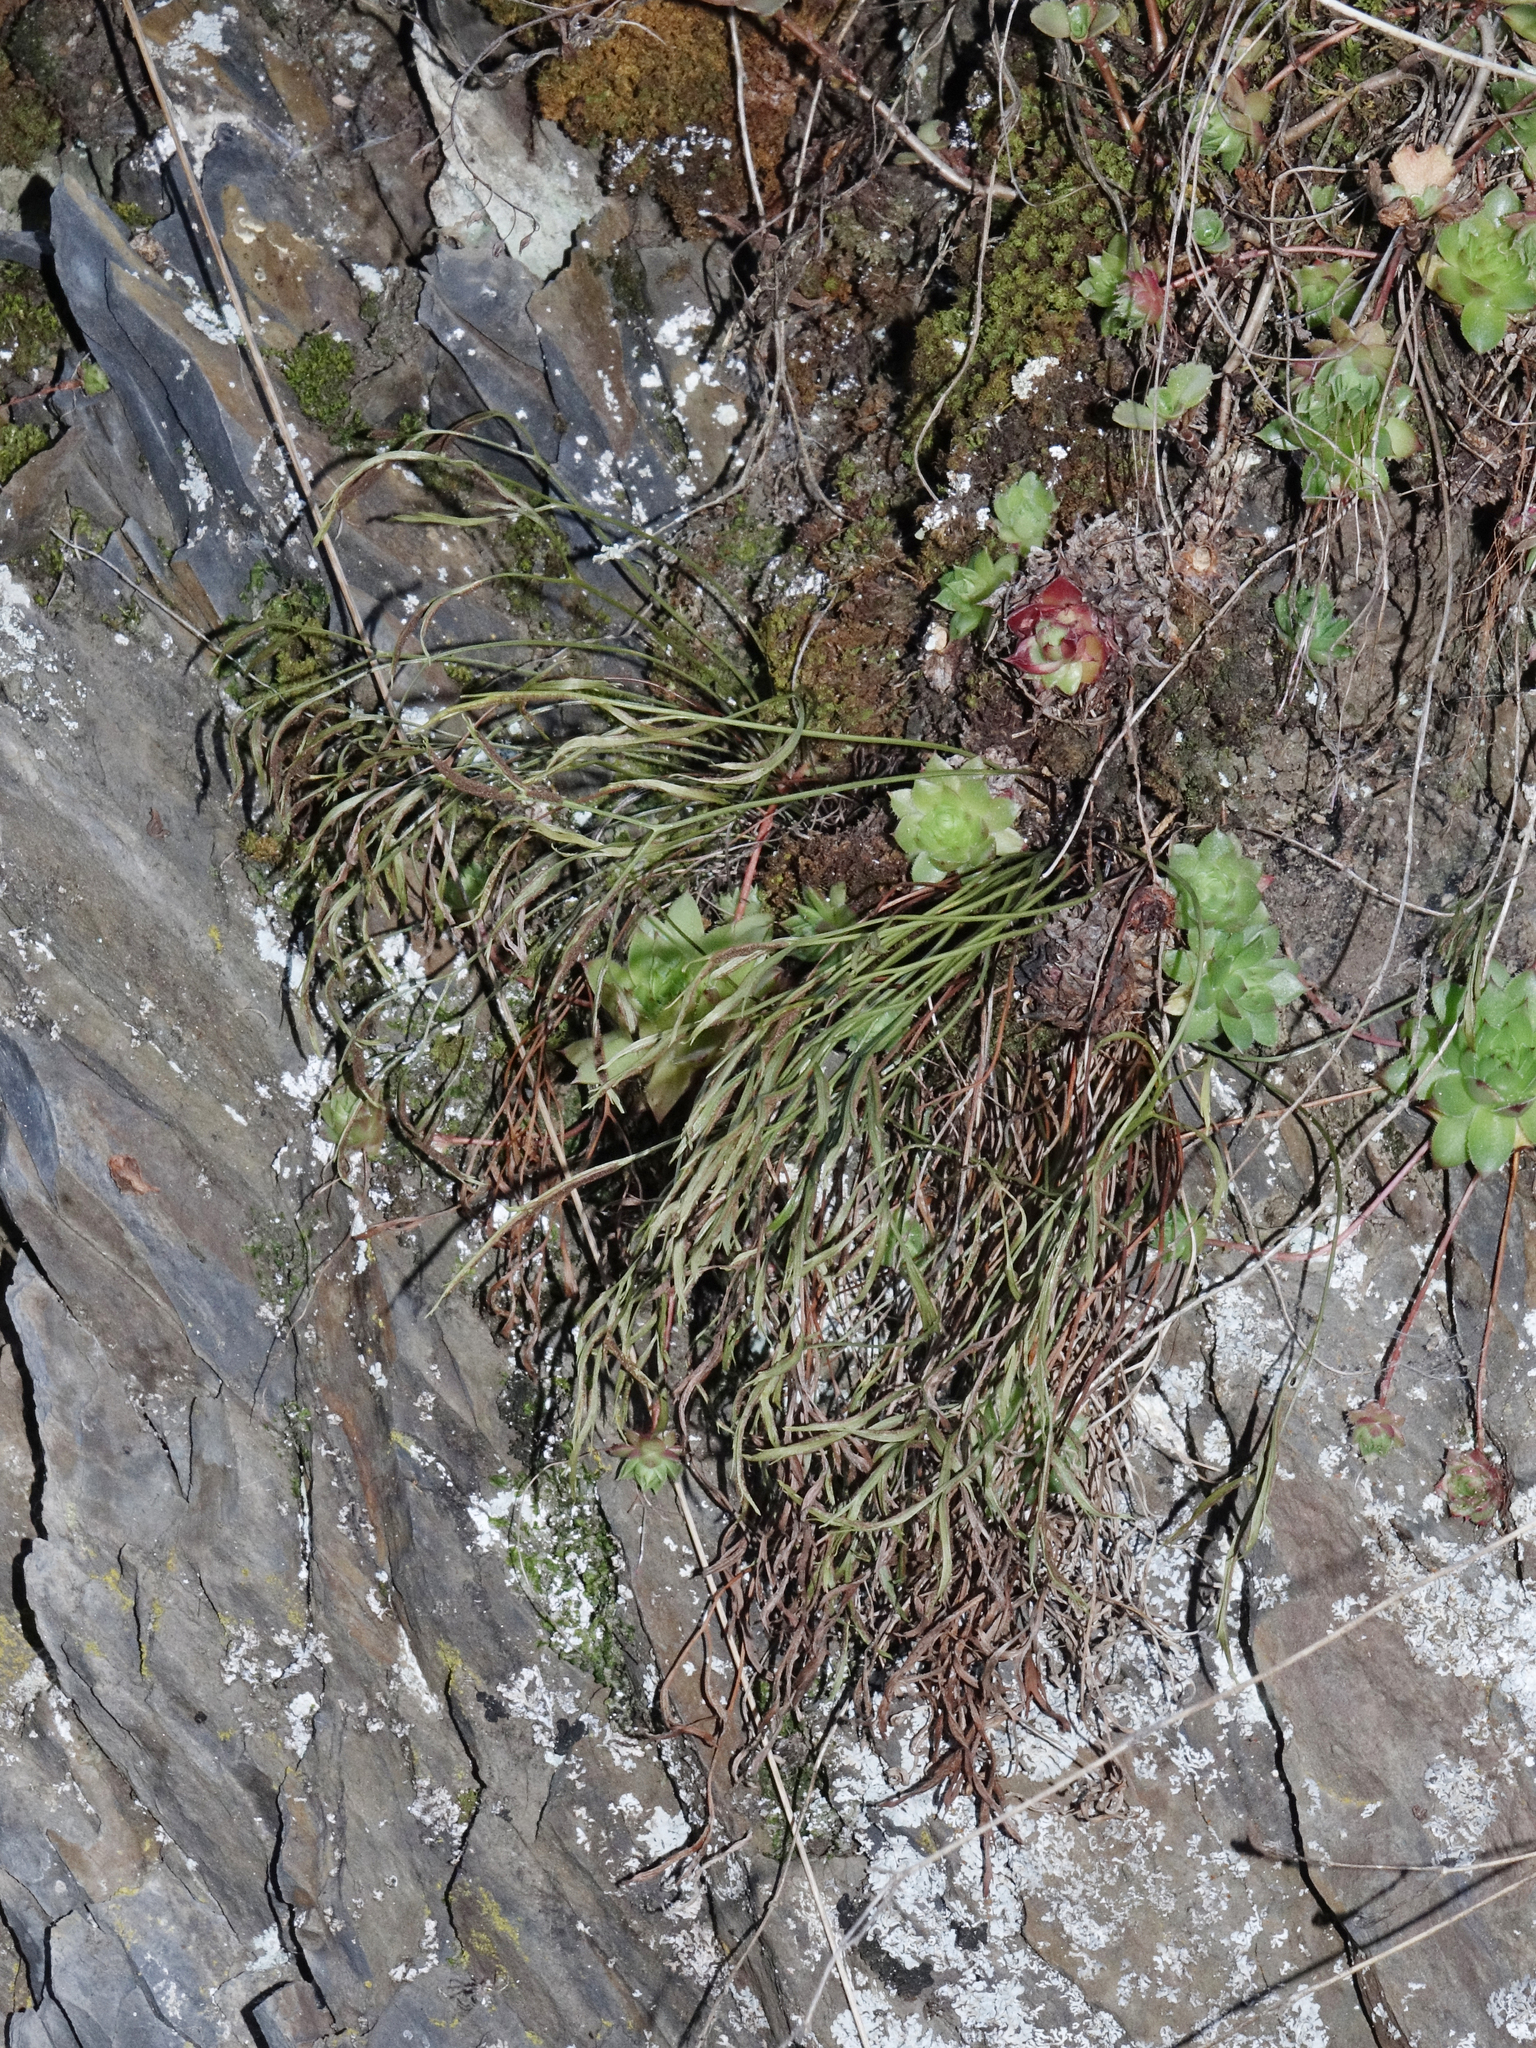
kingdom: Plantae
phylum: Tracheophyta
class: Polypodiopsida
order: Polypodiales
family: Aspleniaceae
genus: Asplenium
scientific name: Asplenium septentrionale
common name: Forked spleenwort
